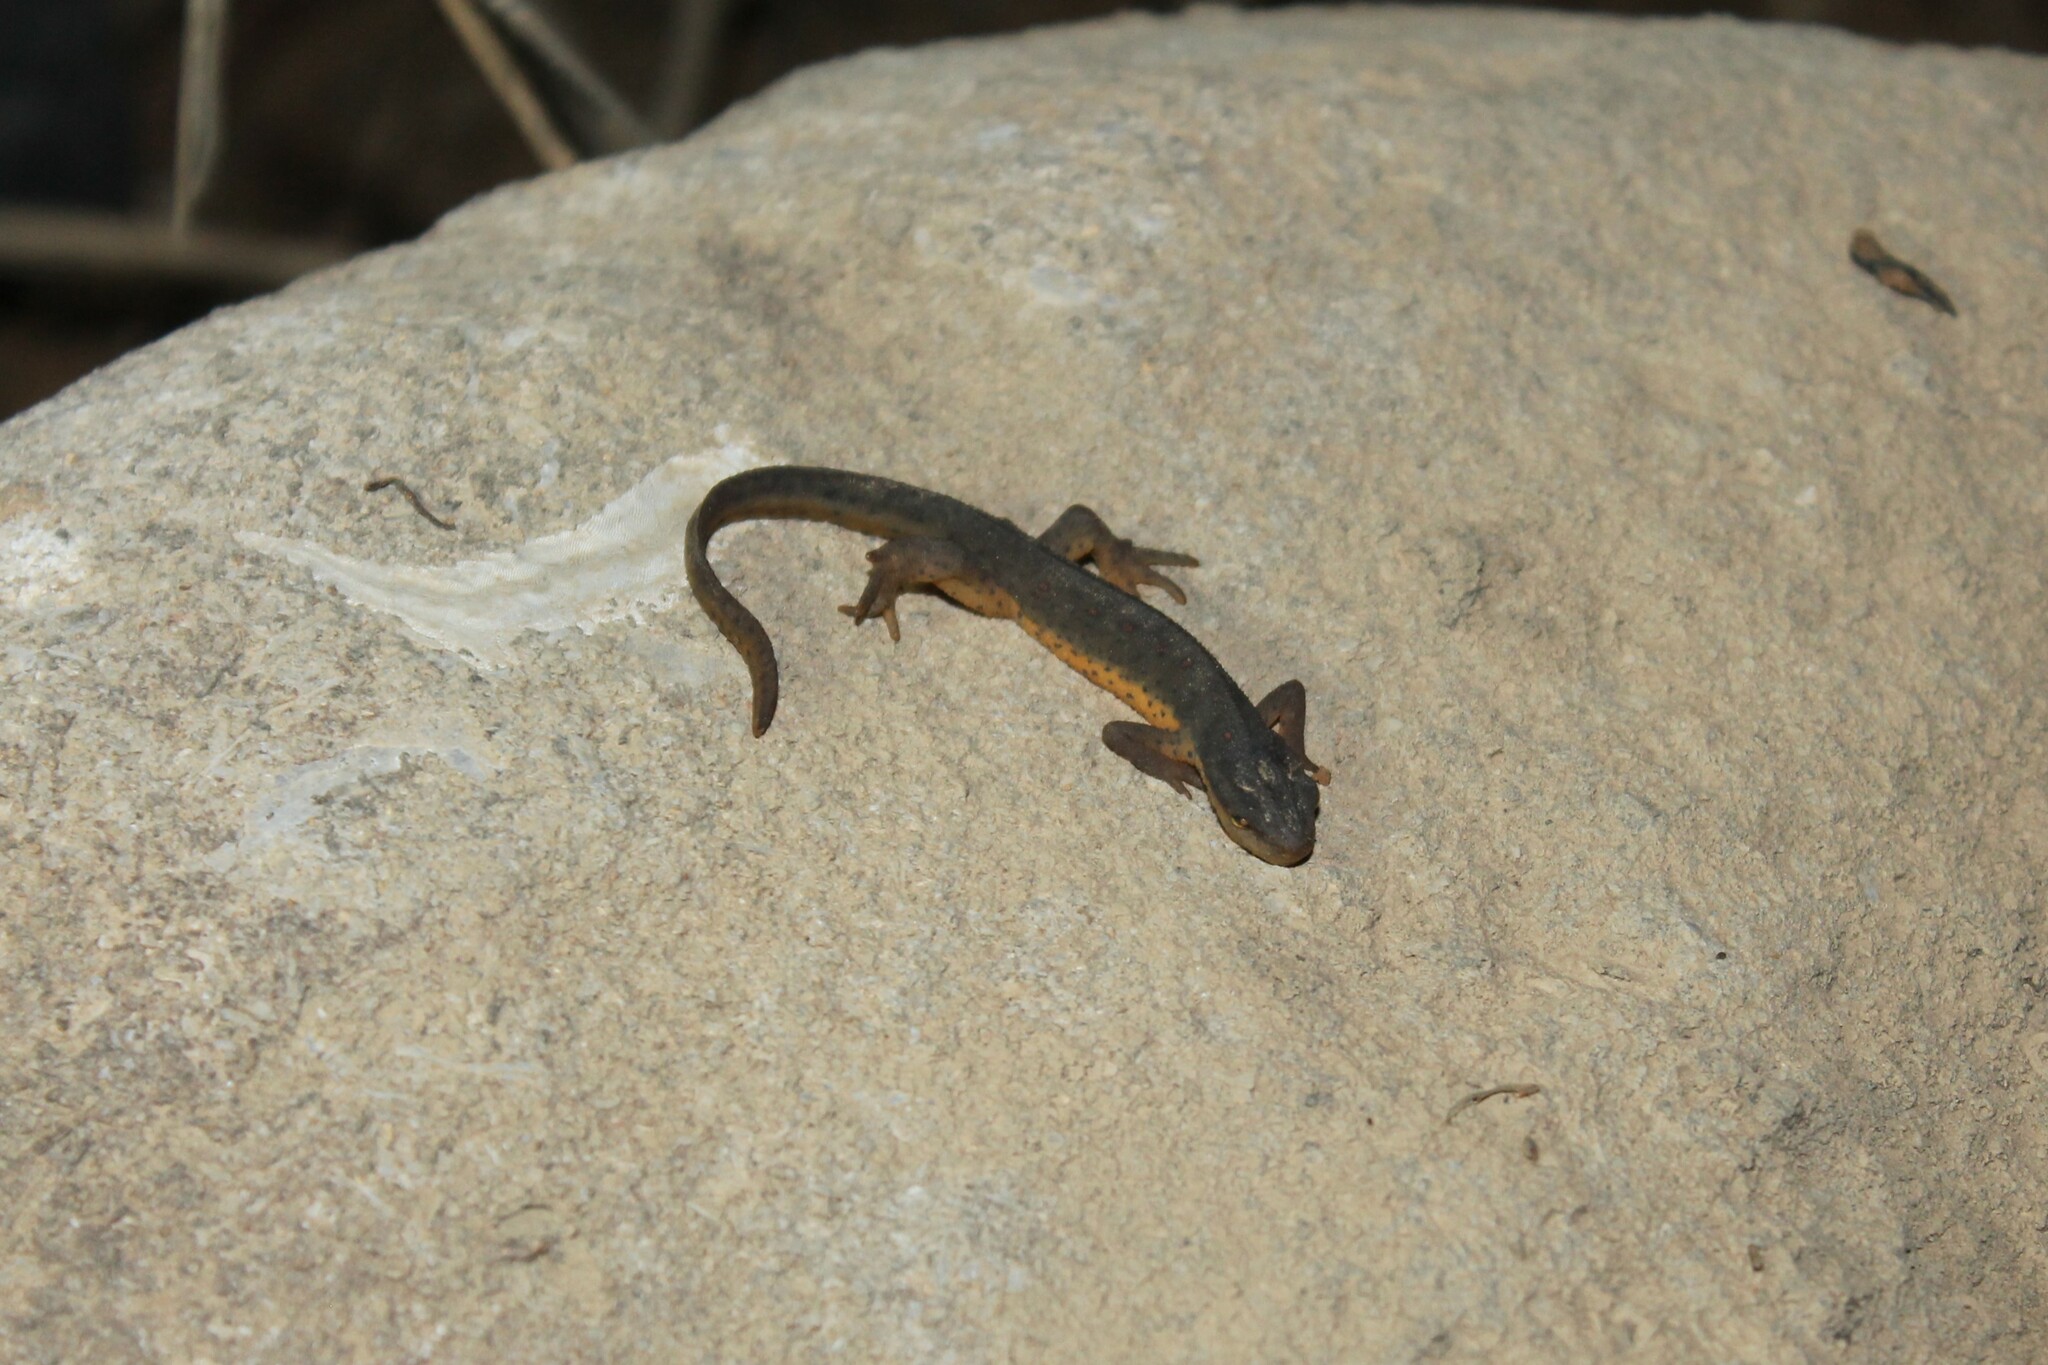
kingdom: Animalia
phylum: Chordata
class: Amphibia
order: Caudata
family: Salamandridae
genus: Notophthalmus
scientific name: Notophthalmus viridescens
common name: Eastern newt
